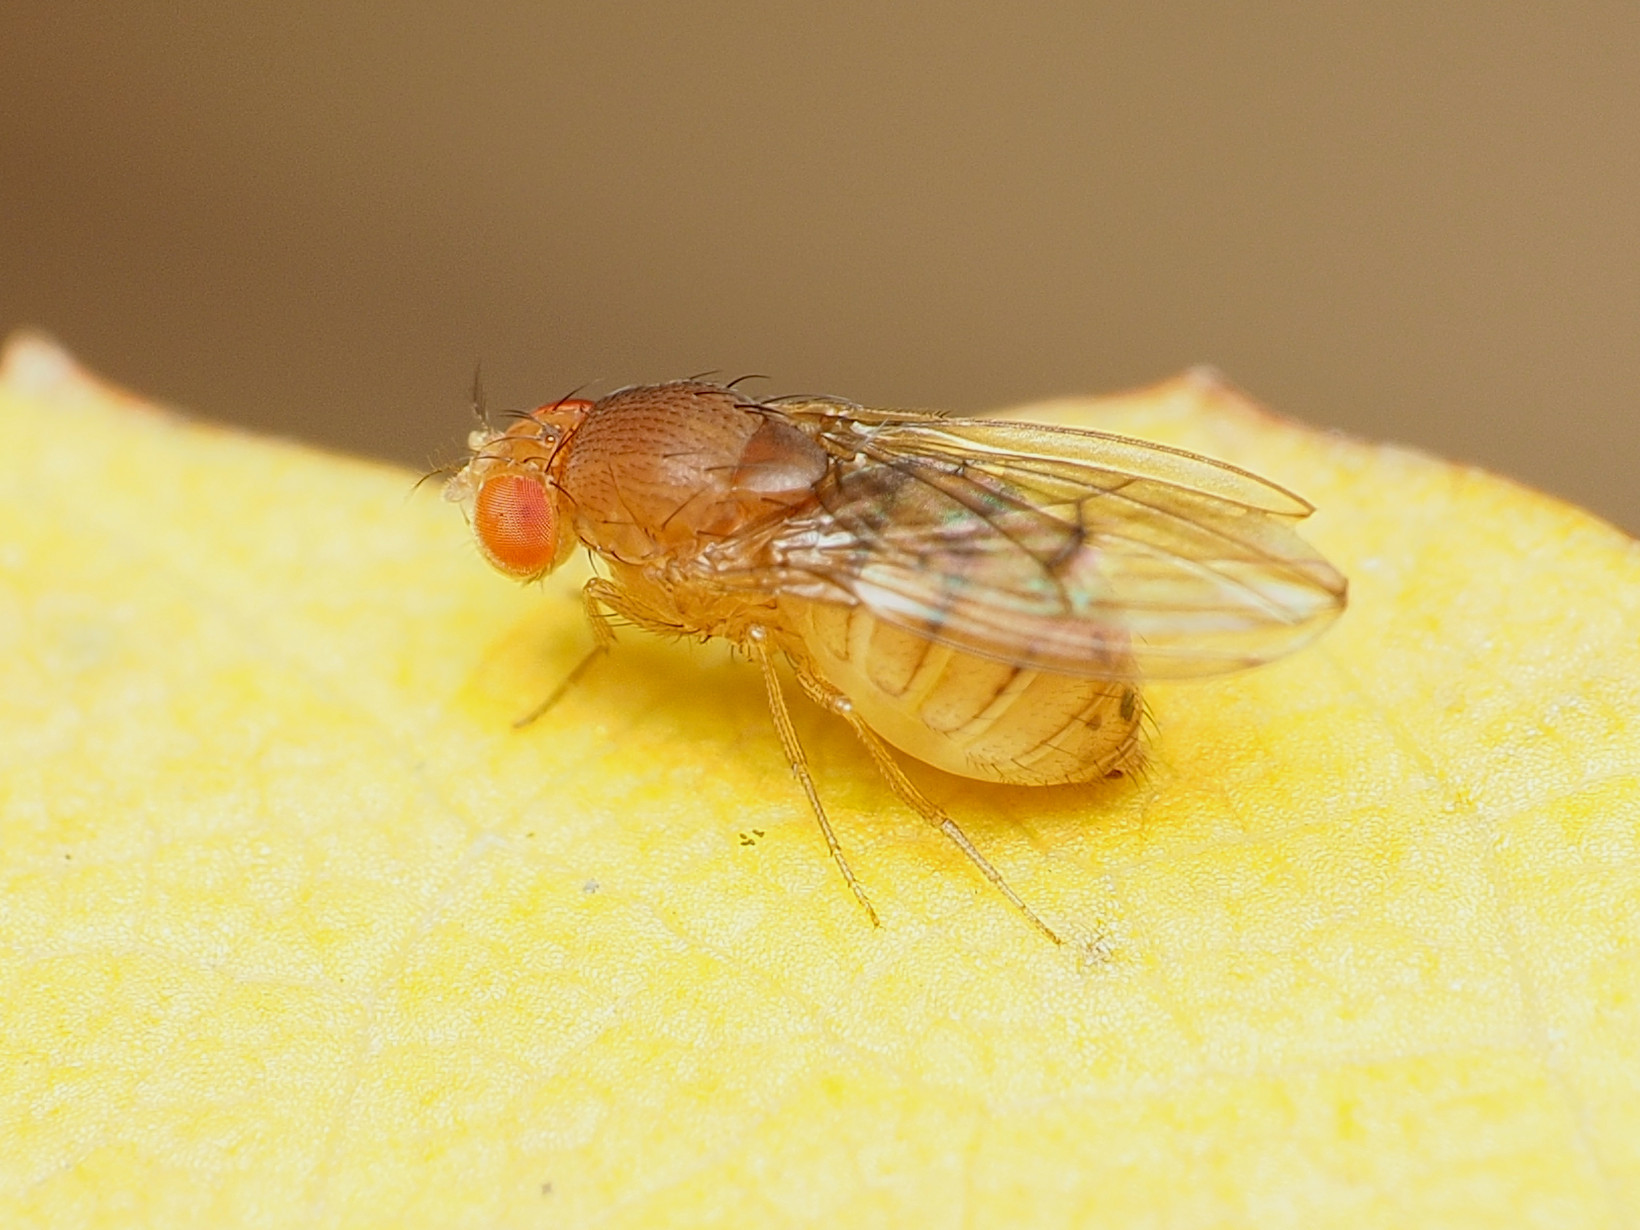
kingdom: Animalia
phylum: Arthropoda
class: Insecta
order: Diptera
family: Drosophilidae
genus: Drosophila
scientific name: Drosophila tripunctata
